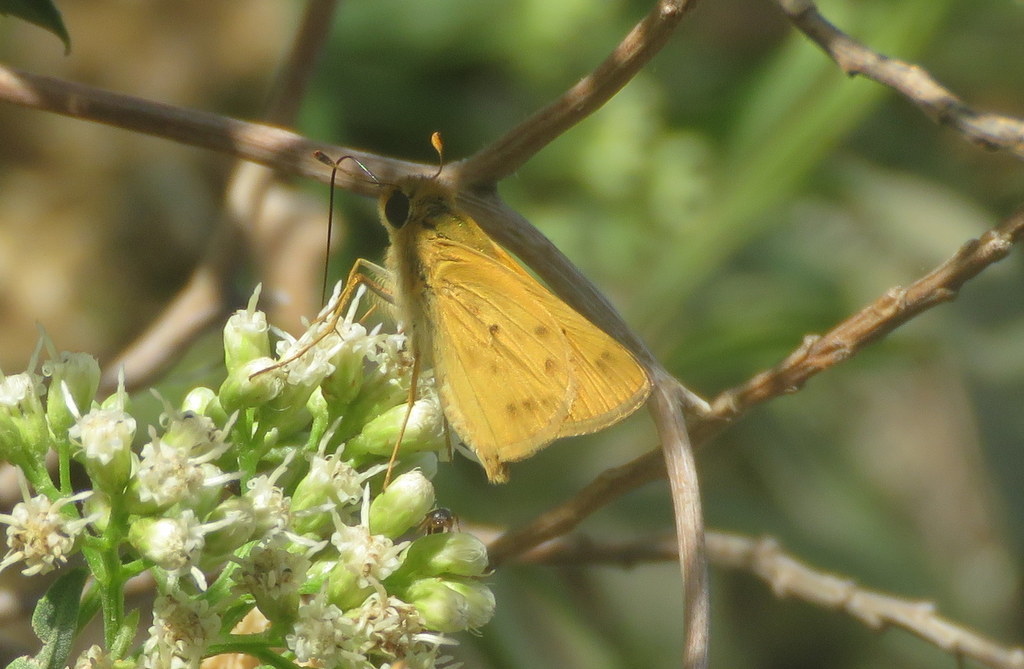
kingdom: Animalia
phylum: Arthropoda
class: Insecta
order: Lepidoptera
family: Hesperiidae
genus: Hylephila
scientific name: Hylephila phyleus
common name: Fiery skipper
